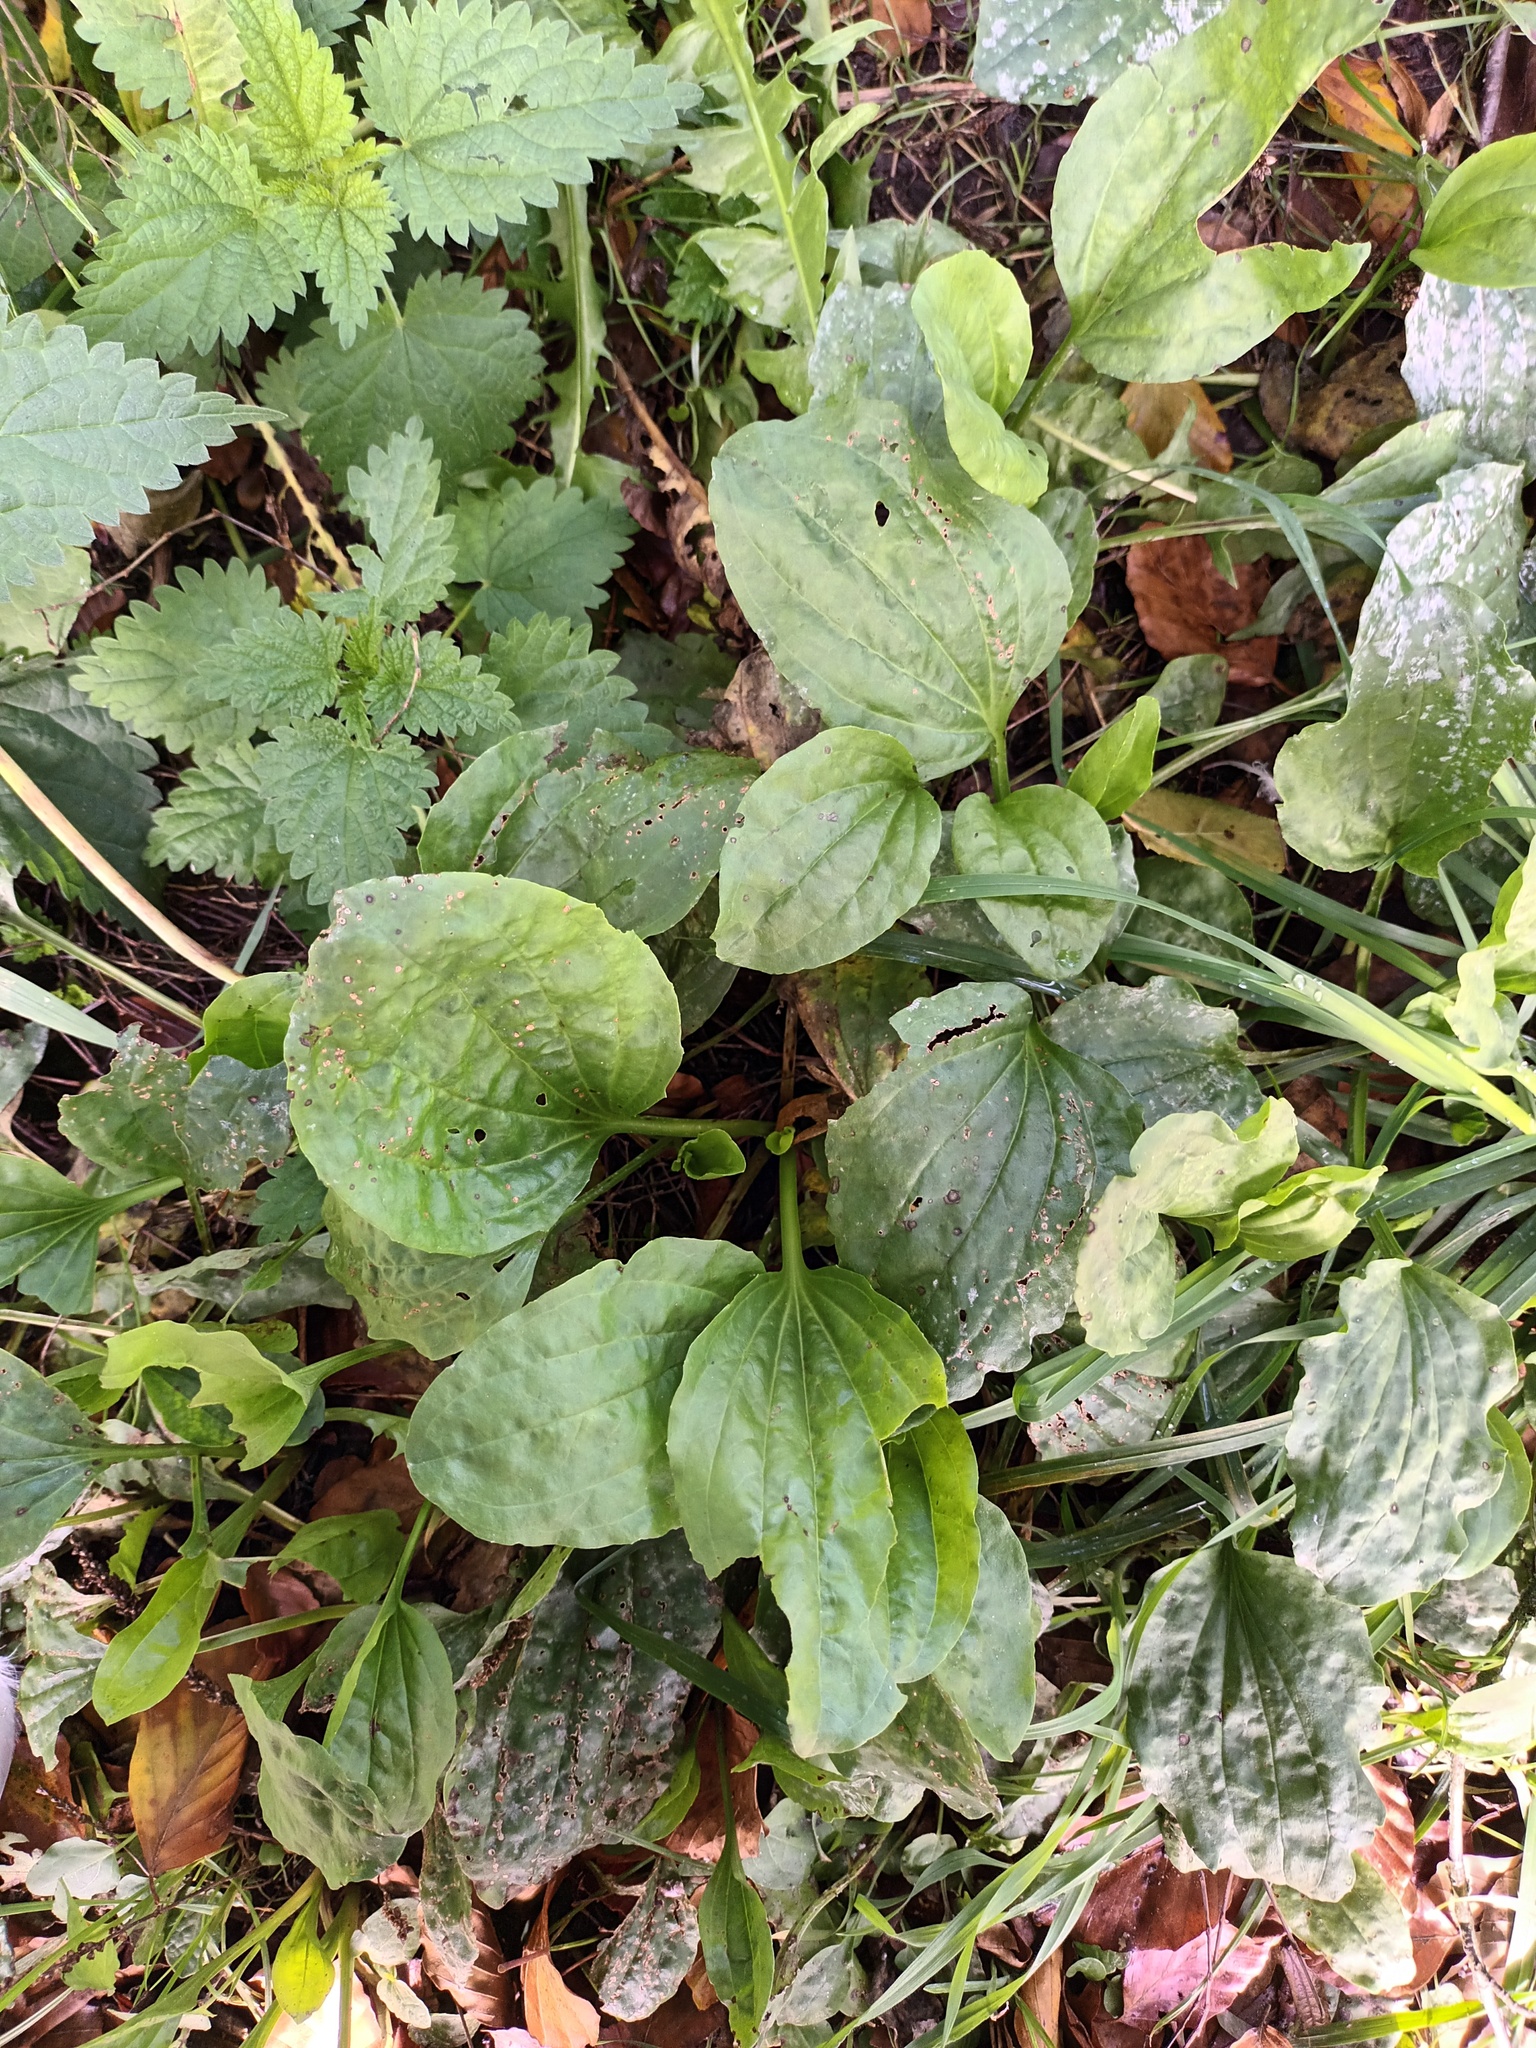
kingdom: Plantae
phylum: Tracheophyta
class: Magnoliopsida
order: Lamiales
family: Plantaginaceae
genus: Plantago
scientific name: Plantago major
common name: Common plantain
